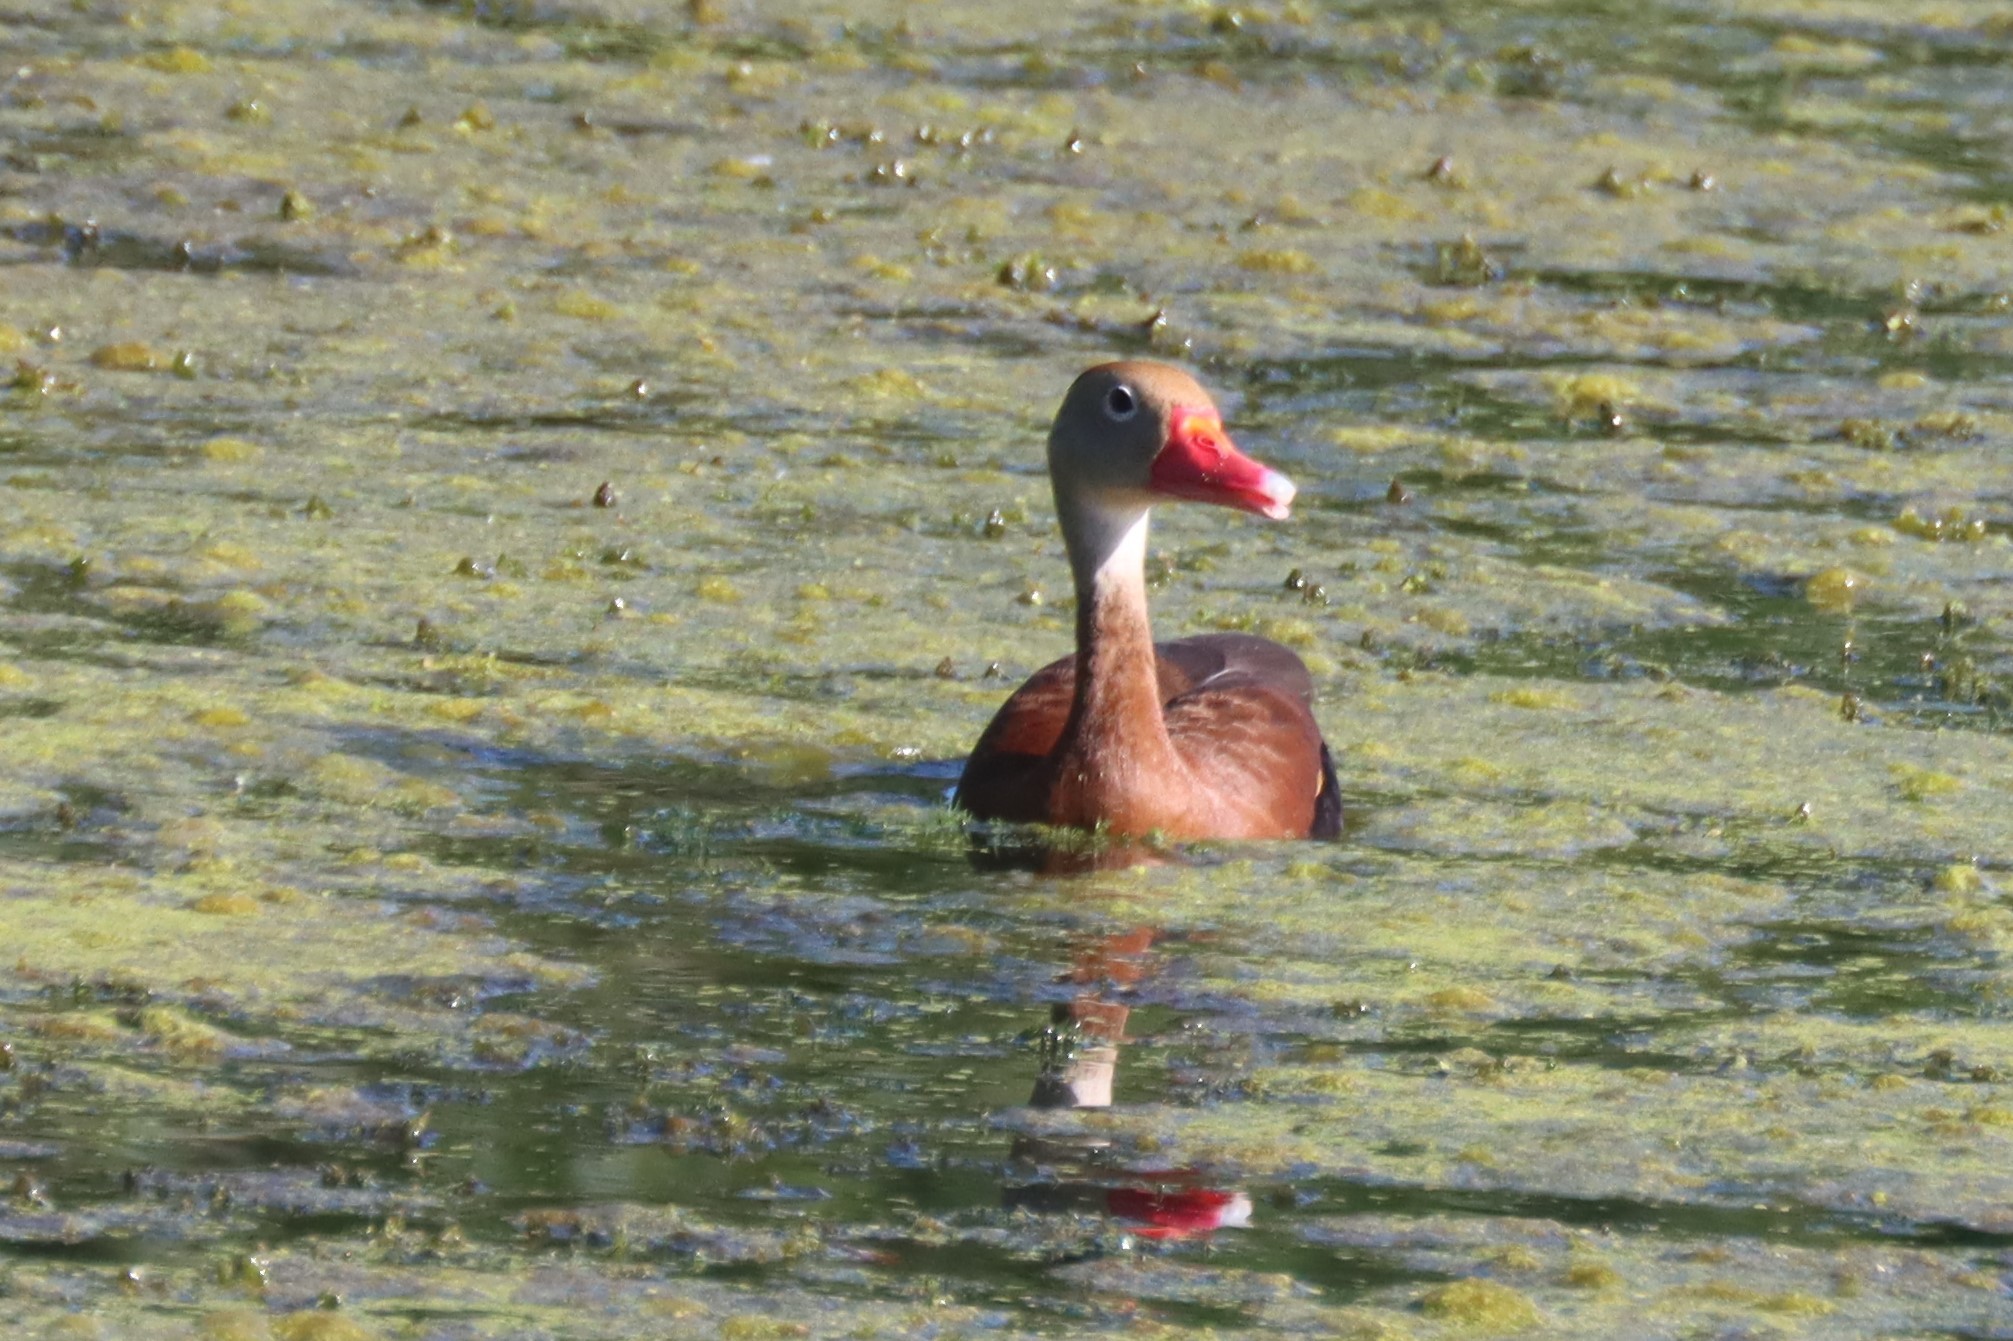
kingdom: Animalia
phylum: Chordata
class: Aves
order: Anseriformes
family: Anatidae
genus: Dendrocygna
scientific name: Dendrocygna autumnalis
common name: Black-bellied whistling duck
